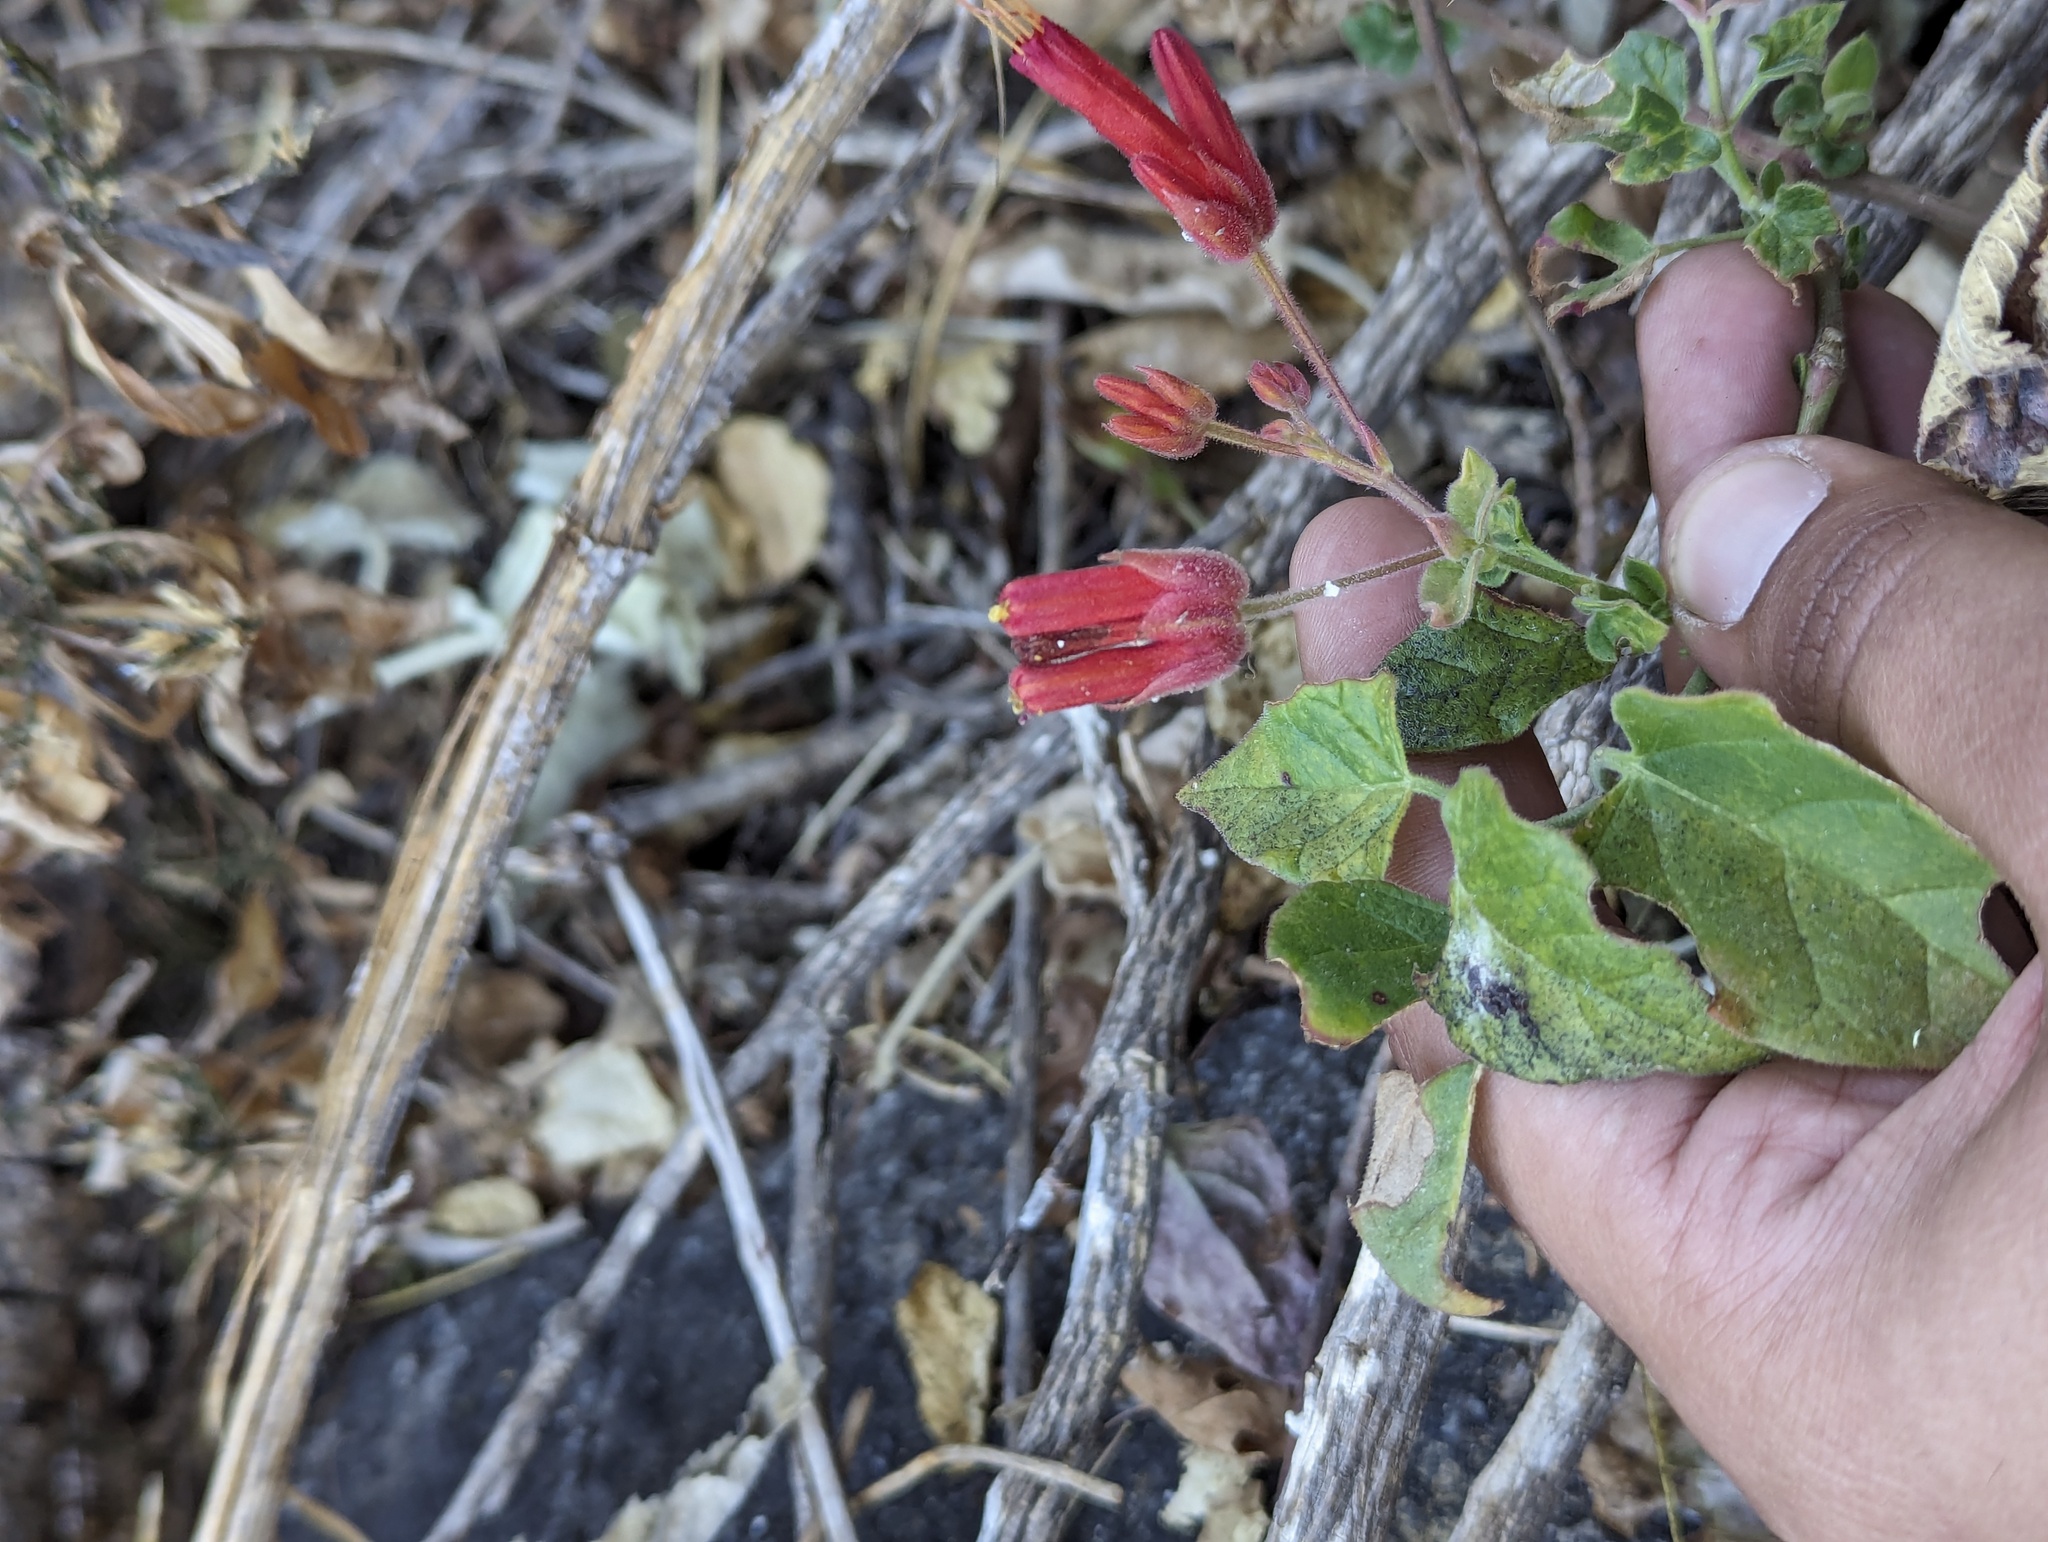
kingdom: Plantae
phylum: Tracheophyta
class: Magnoliopsida
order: Caryophyllales
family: Nyctaginaceae
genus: Mirabilis
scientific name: Mirabilis triflora
